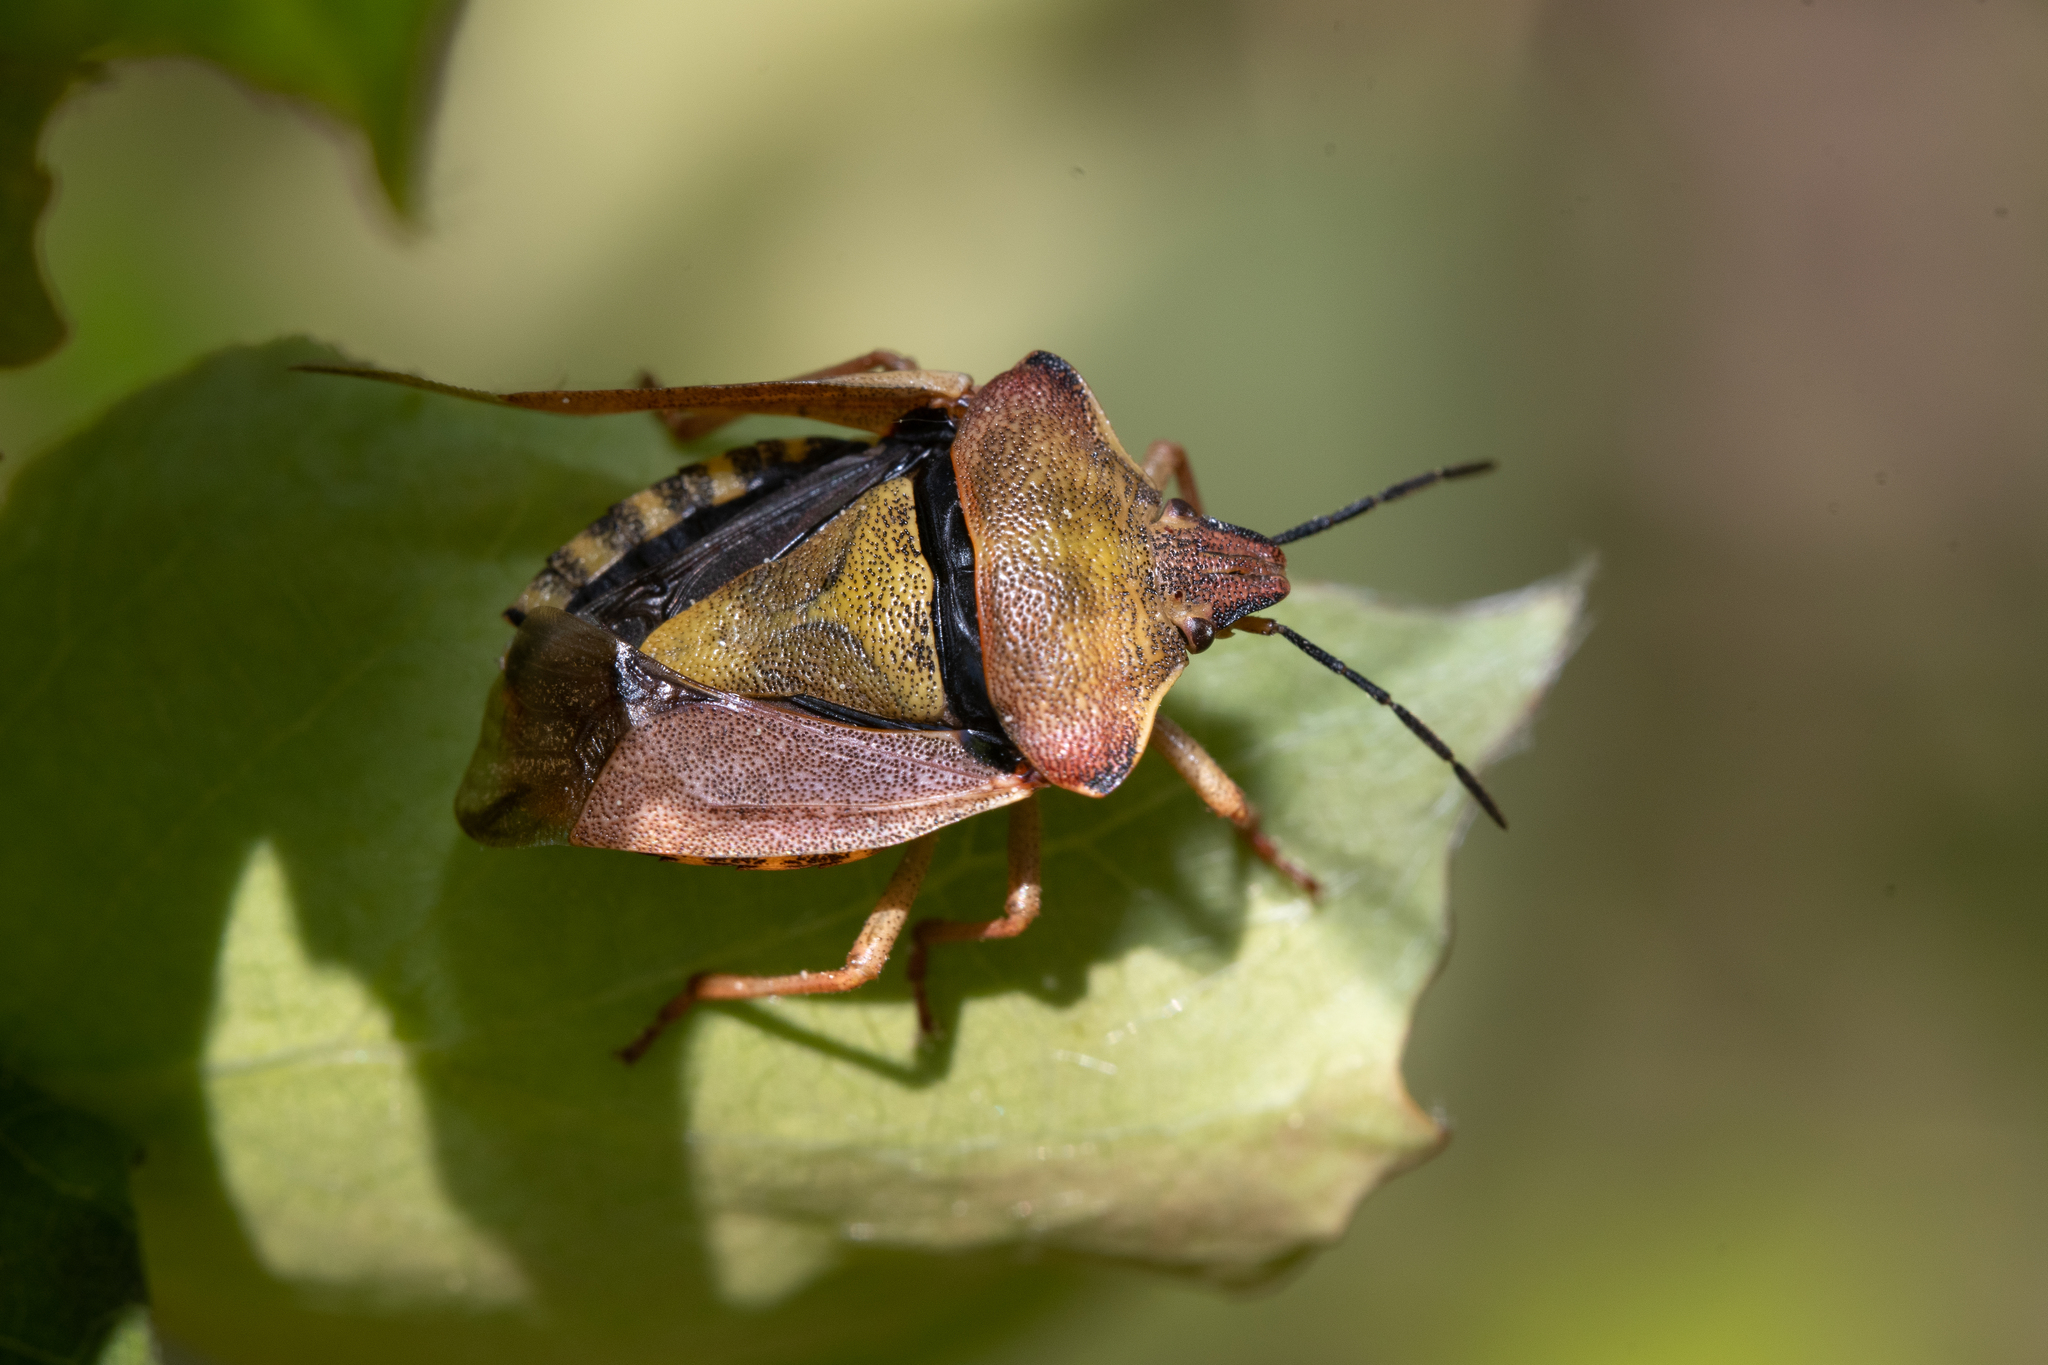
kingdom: Animalia
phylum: Arthropoda
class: Insecta
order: Hemiptera
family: Pentatomidae
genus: Carpocoris
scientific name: Carpocoris purpureipennis
